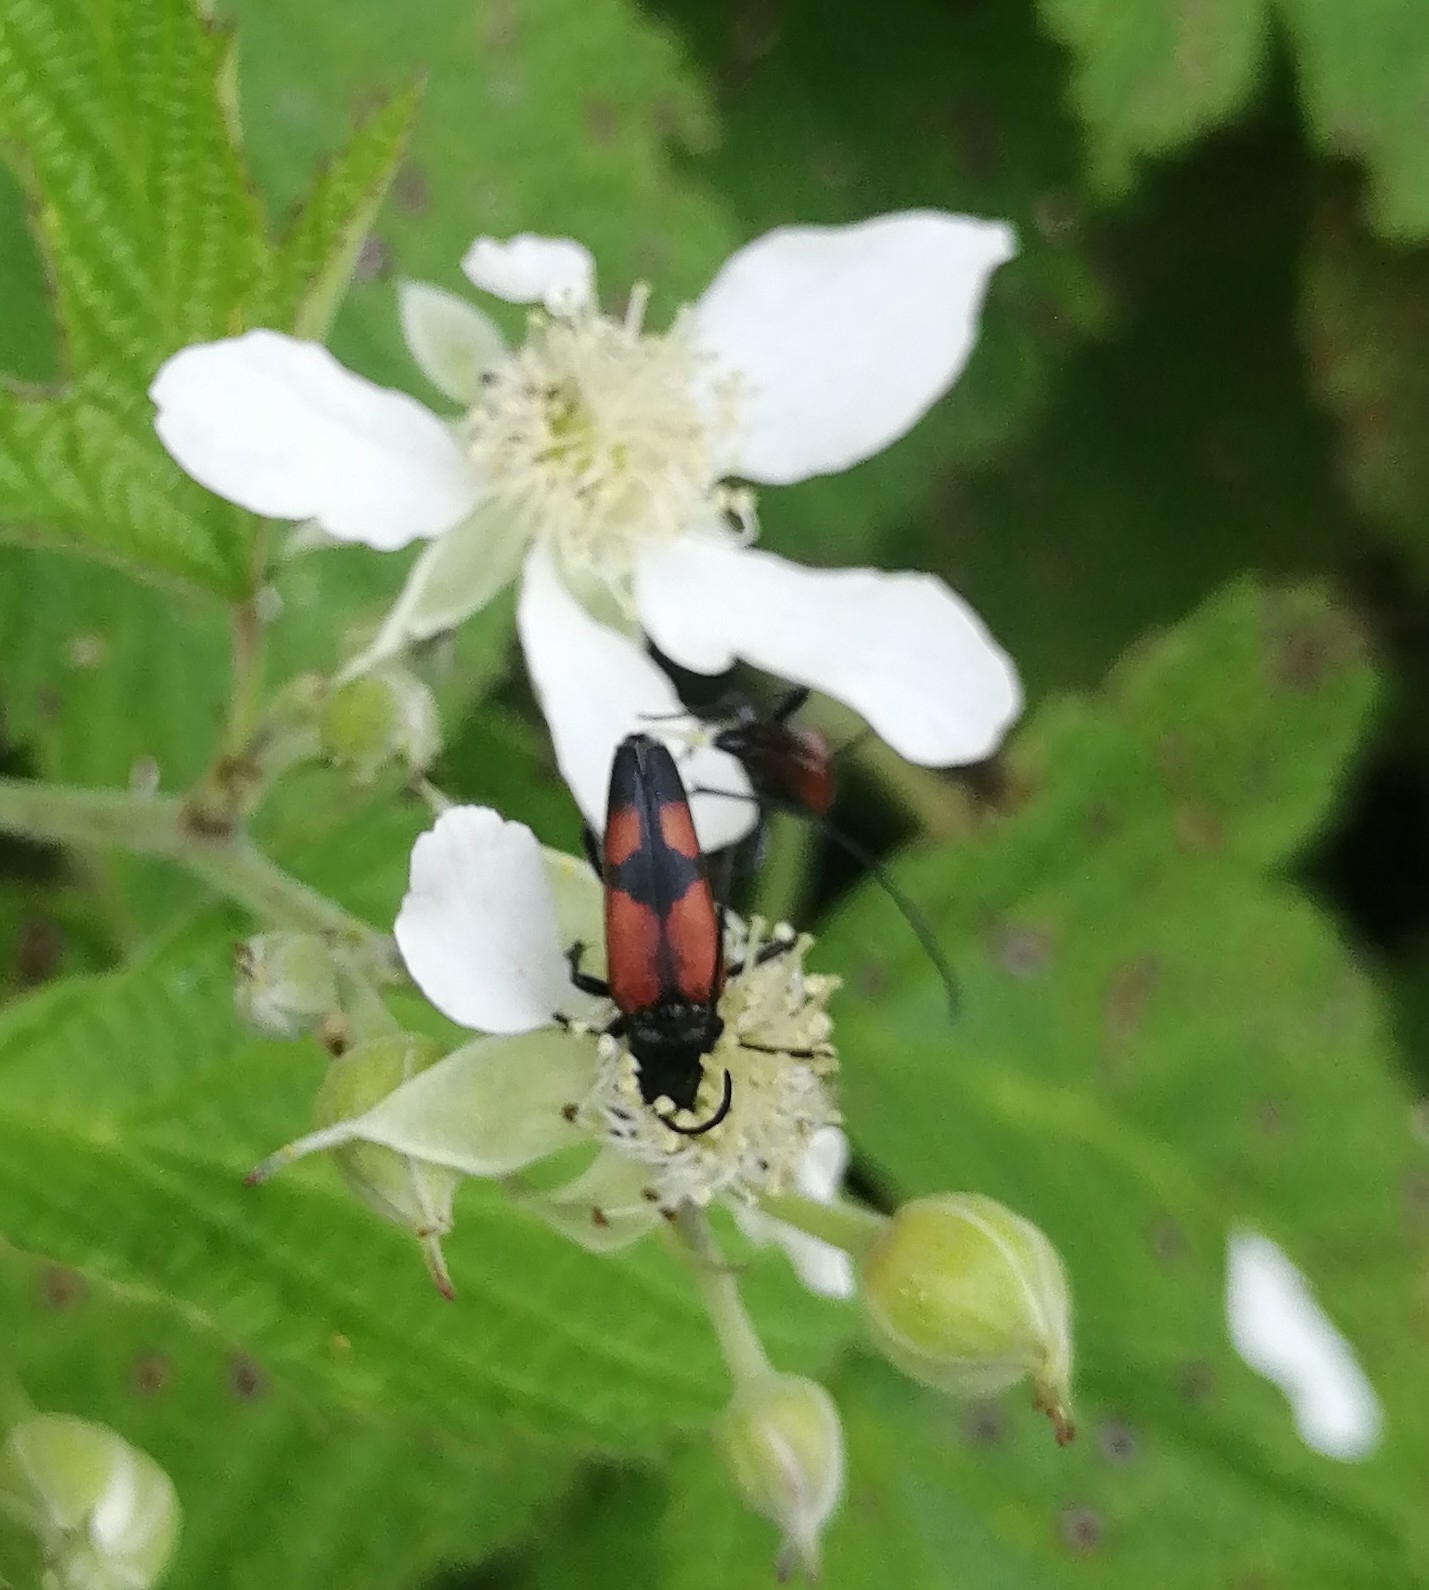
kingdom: Animalia
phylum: Arthropoda
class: Insecta
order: Coleoptera
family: Cerambycidae
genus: Stenurella
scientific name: Stenurella bifasciata
